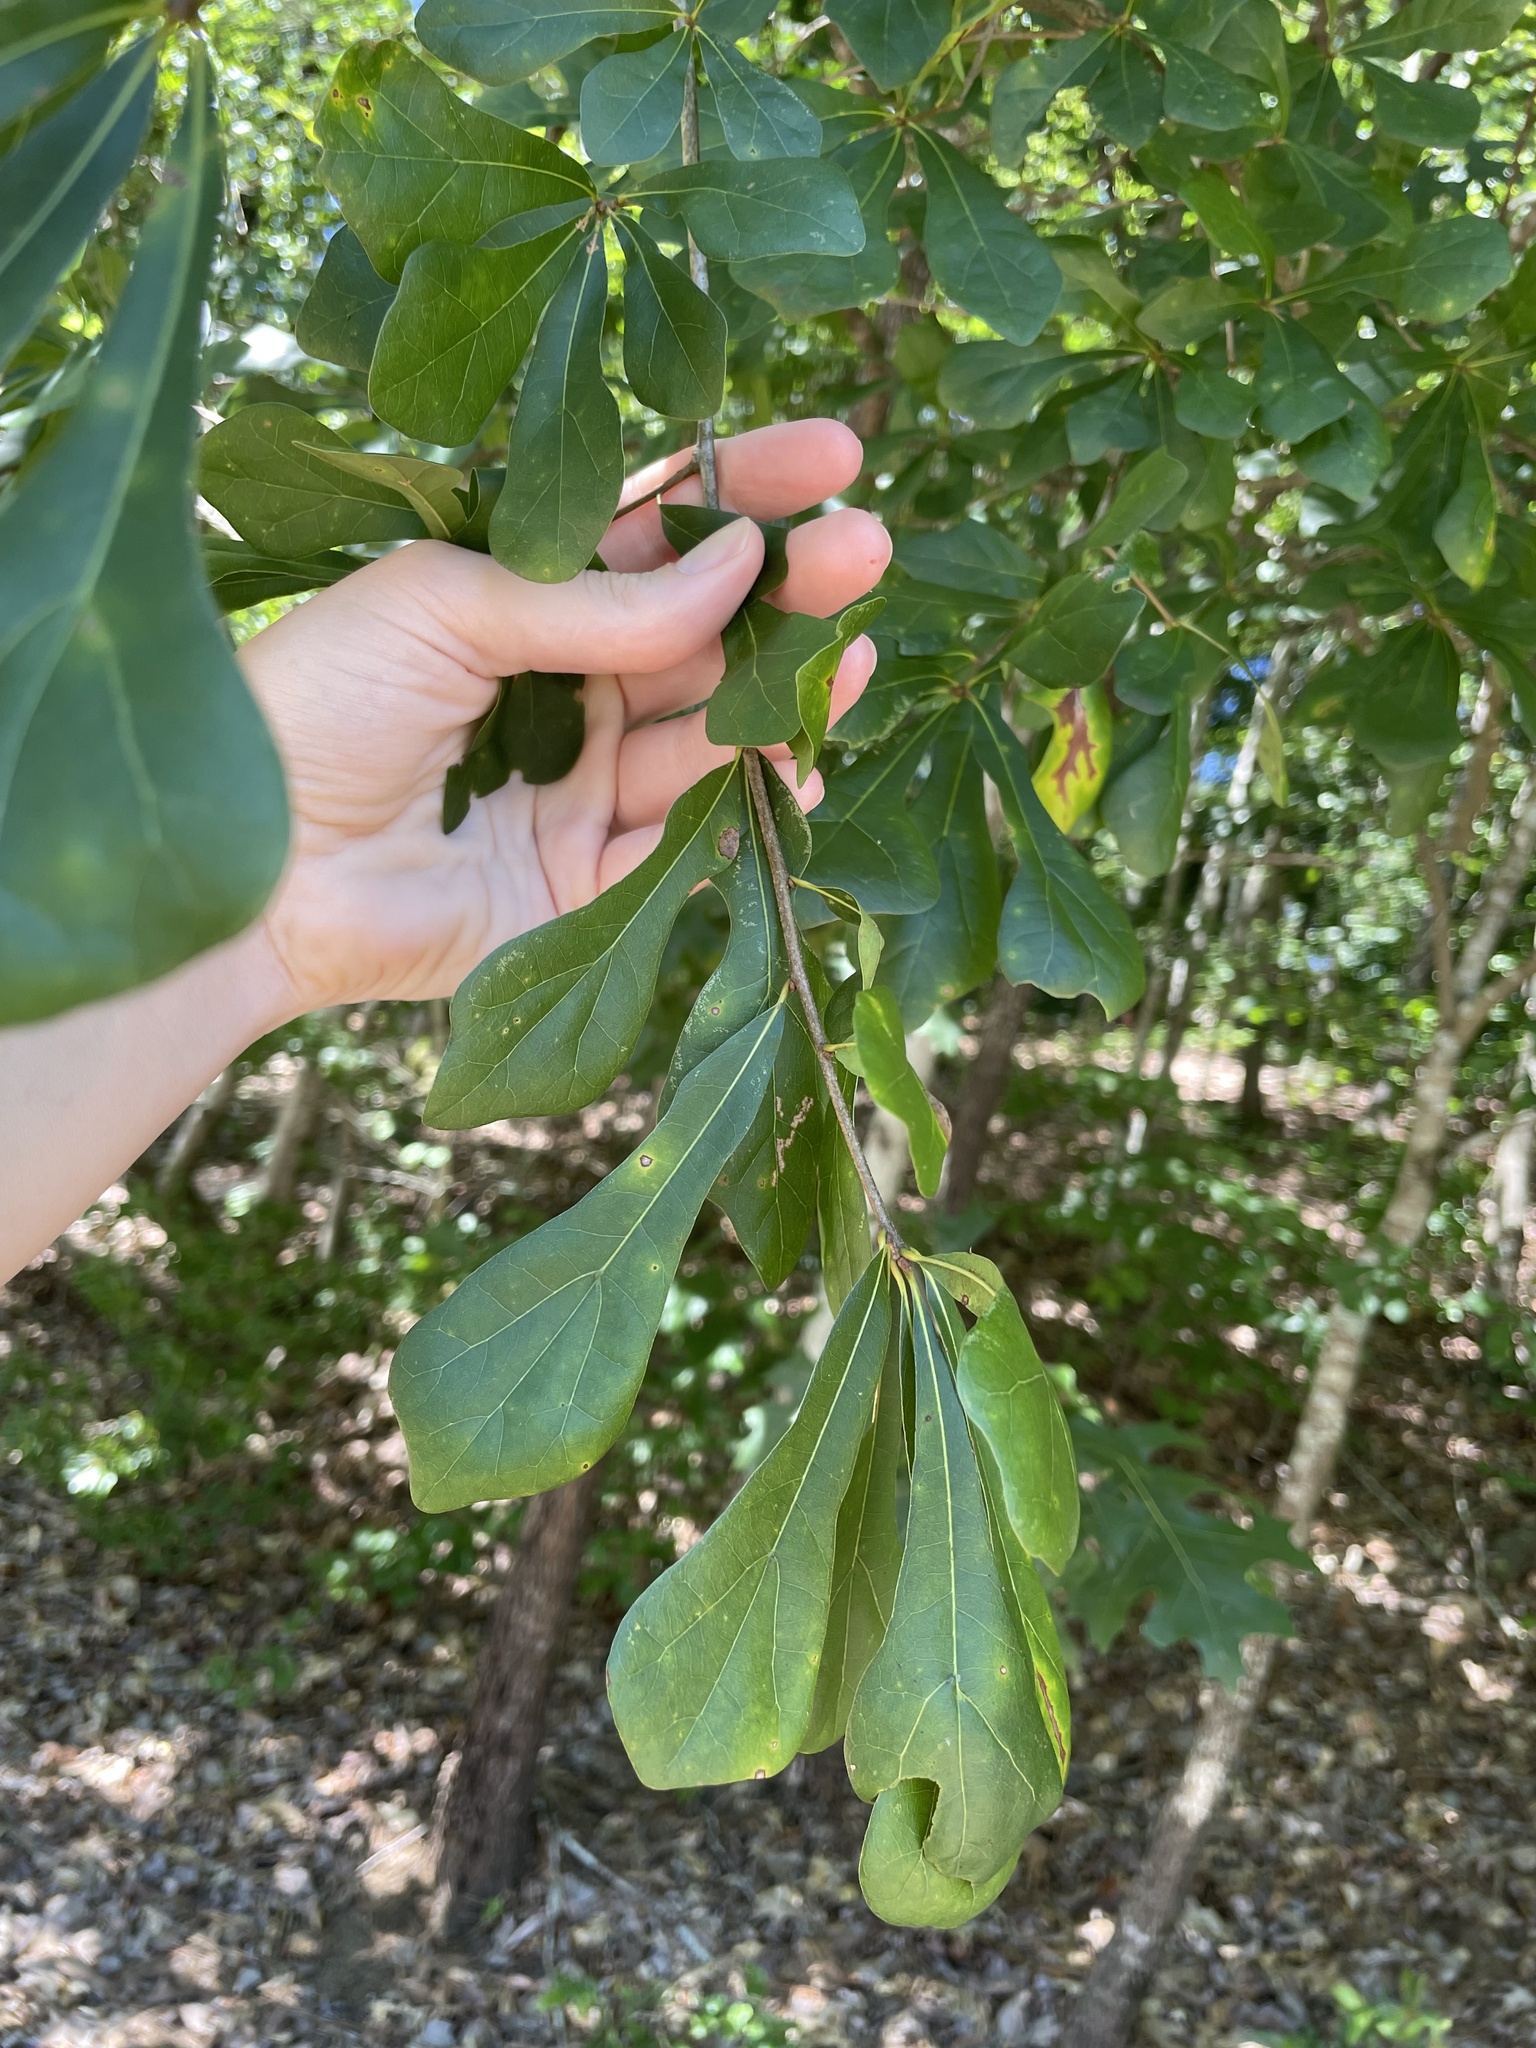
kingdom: Plantae
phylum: Tracheophyta
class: Magnoliopsida
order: Fagales
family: Fagaceae
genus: Quercus
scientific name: Quercus nigra
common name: Water oak
